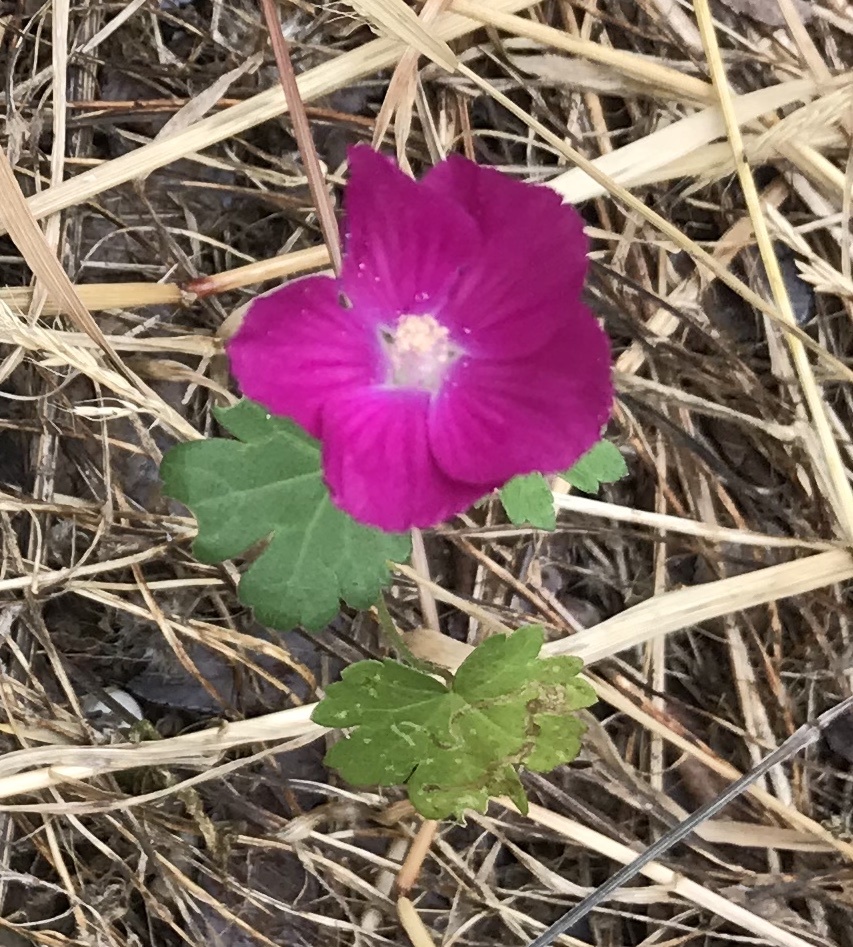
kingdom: Plantae
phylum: Tracheophyta
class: Magnoliopsida
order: Malvales
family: Malvaceae
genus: Callirhoe
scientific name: Callirhoe involucrata
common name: Purple poppy-mallow
